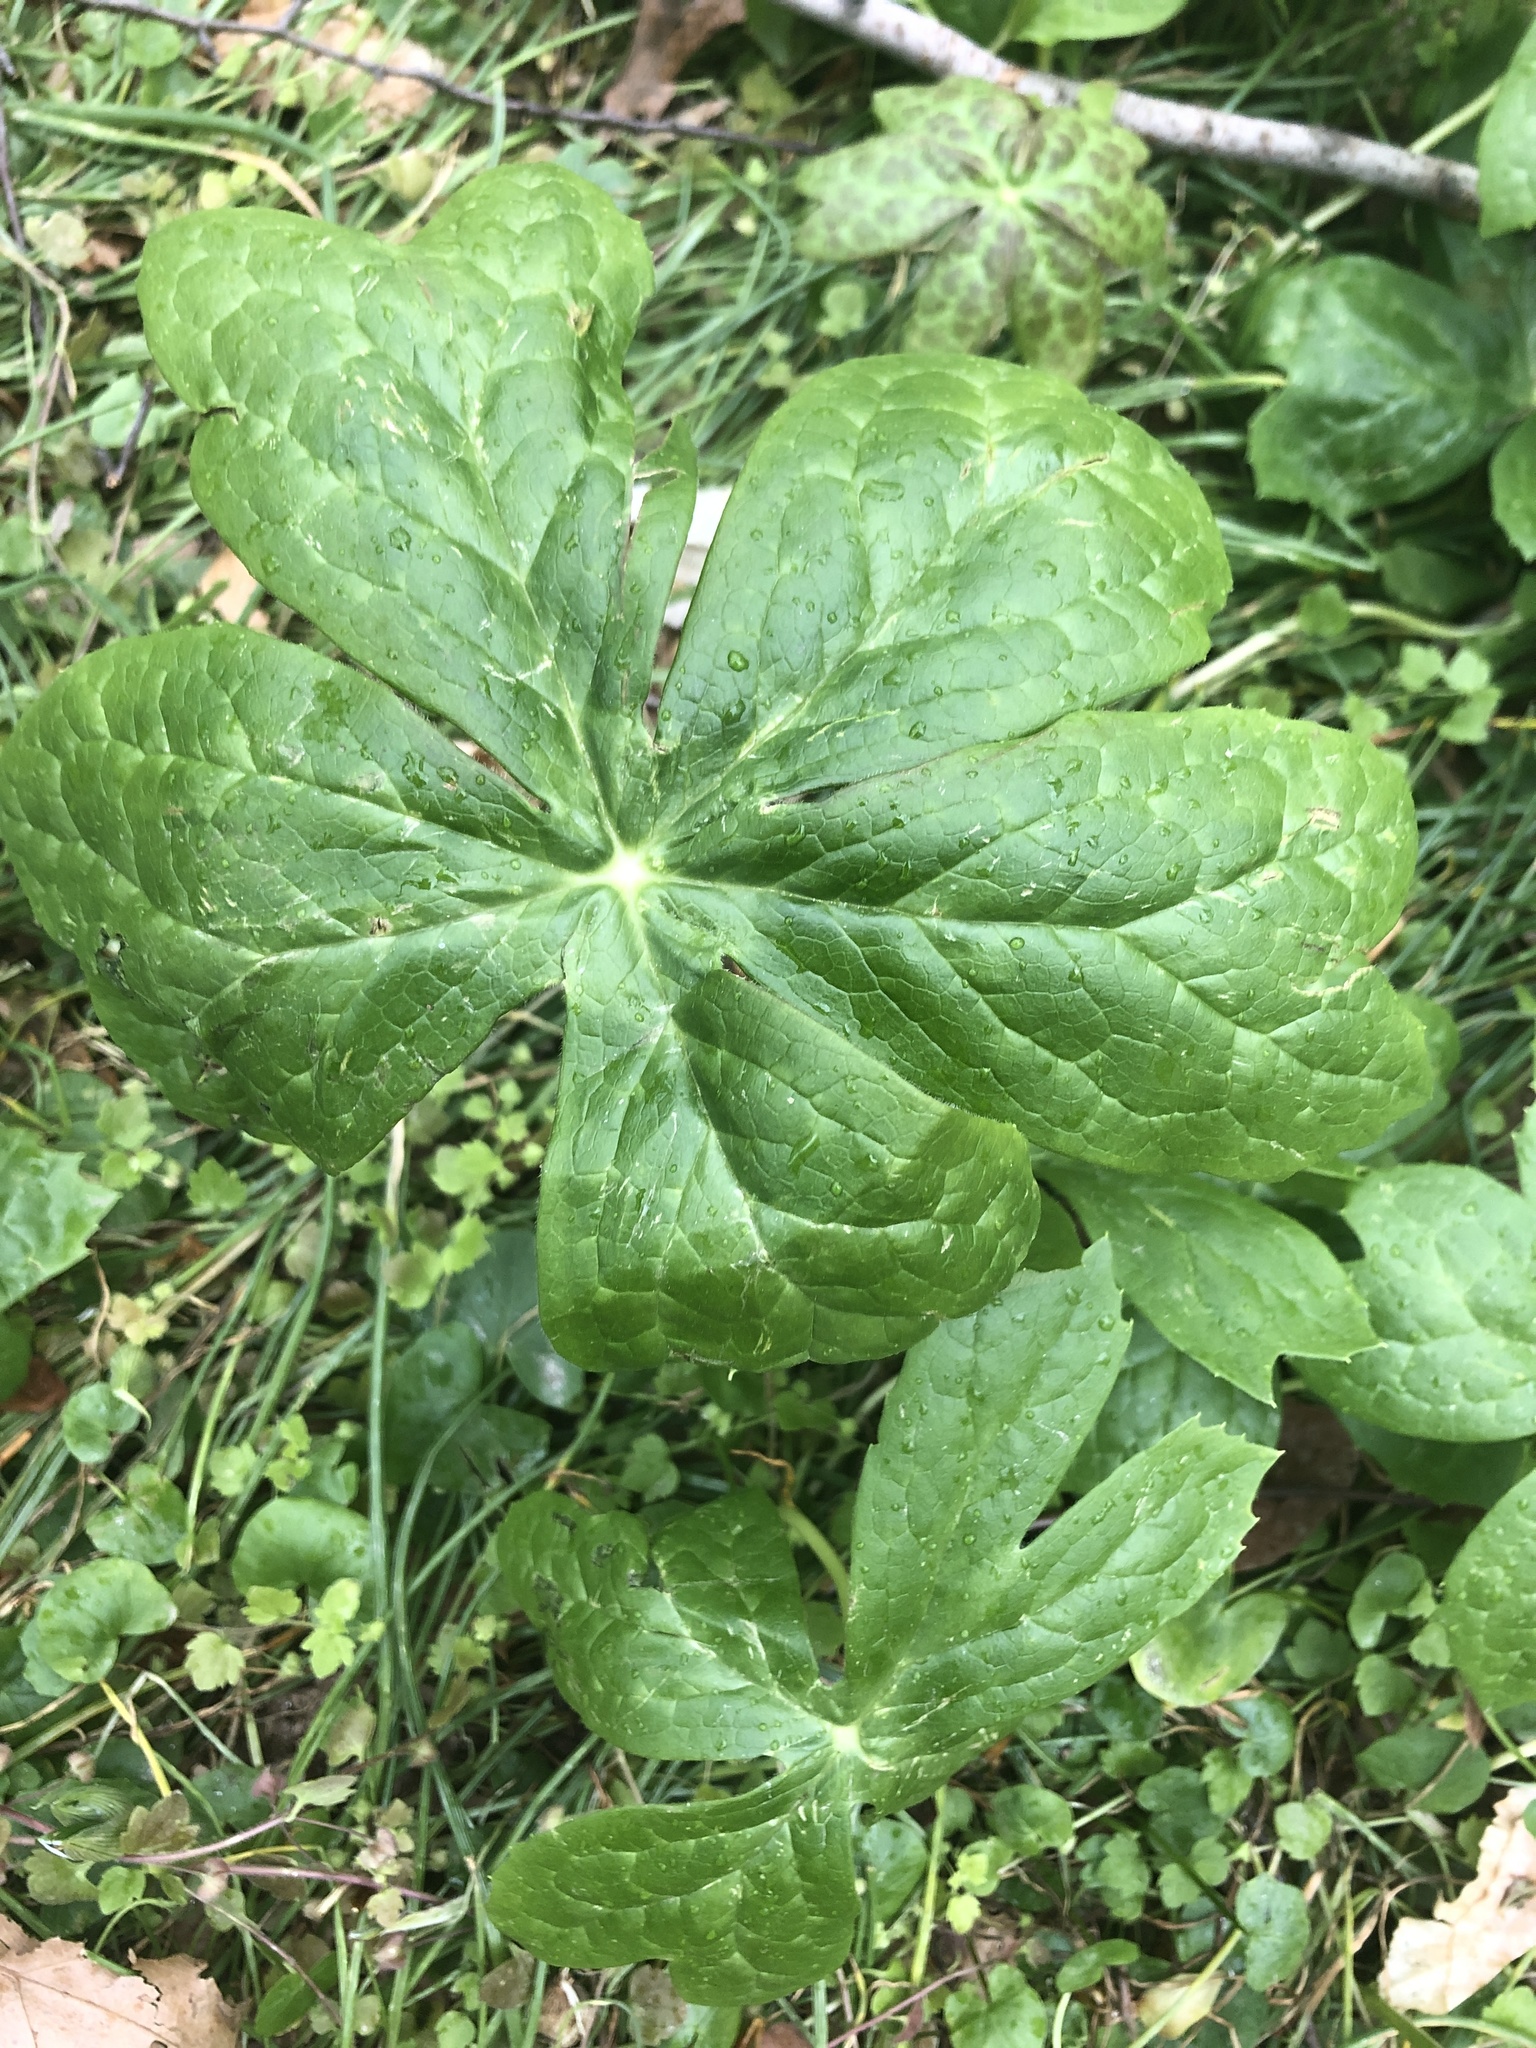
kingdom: Plantae
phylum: Tracheophyta
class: Magnoliopsida
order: Ranunculales
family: Berberidaceae
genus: Podophyllum
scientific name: Podophyllum peltatum
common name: Wild mandrake
